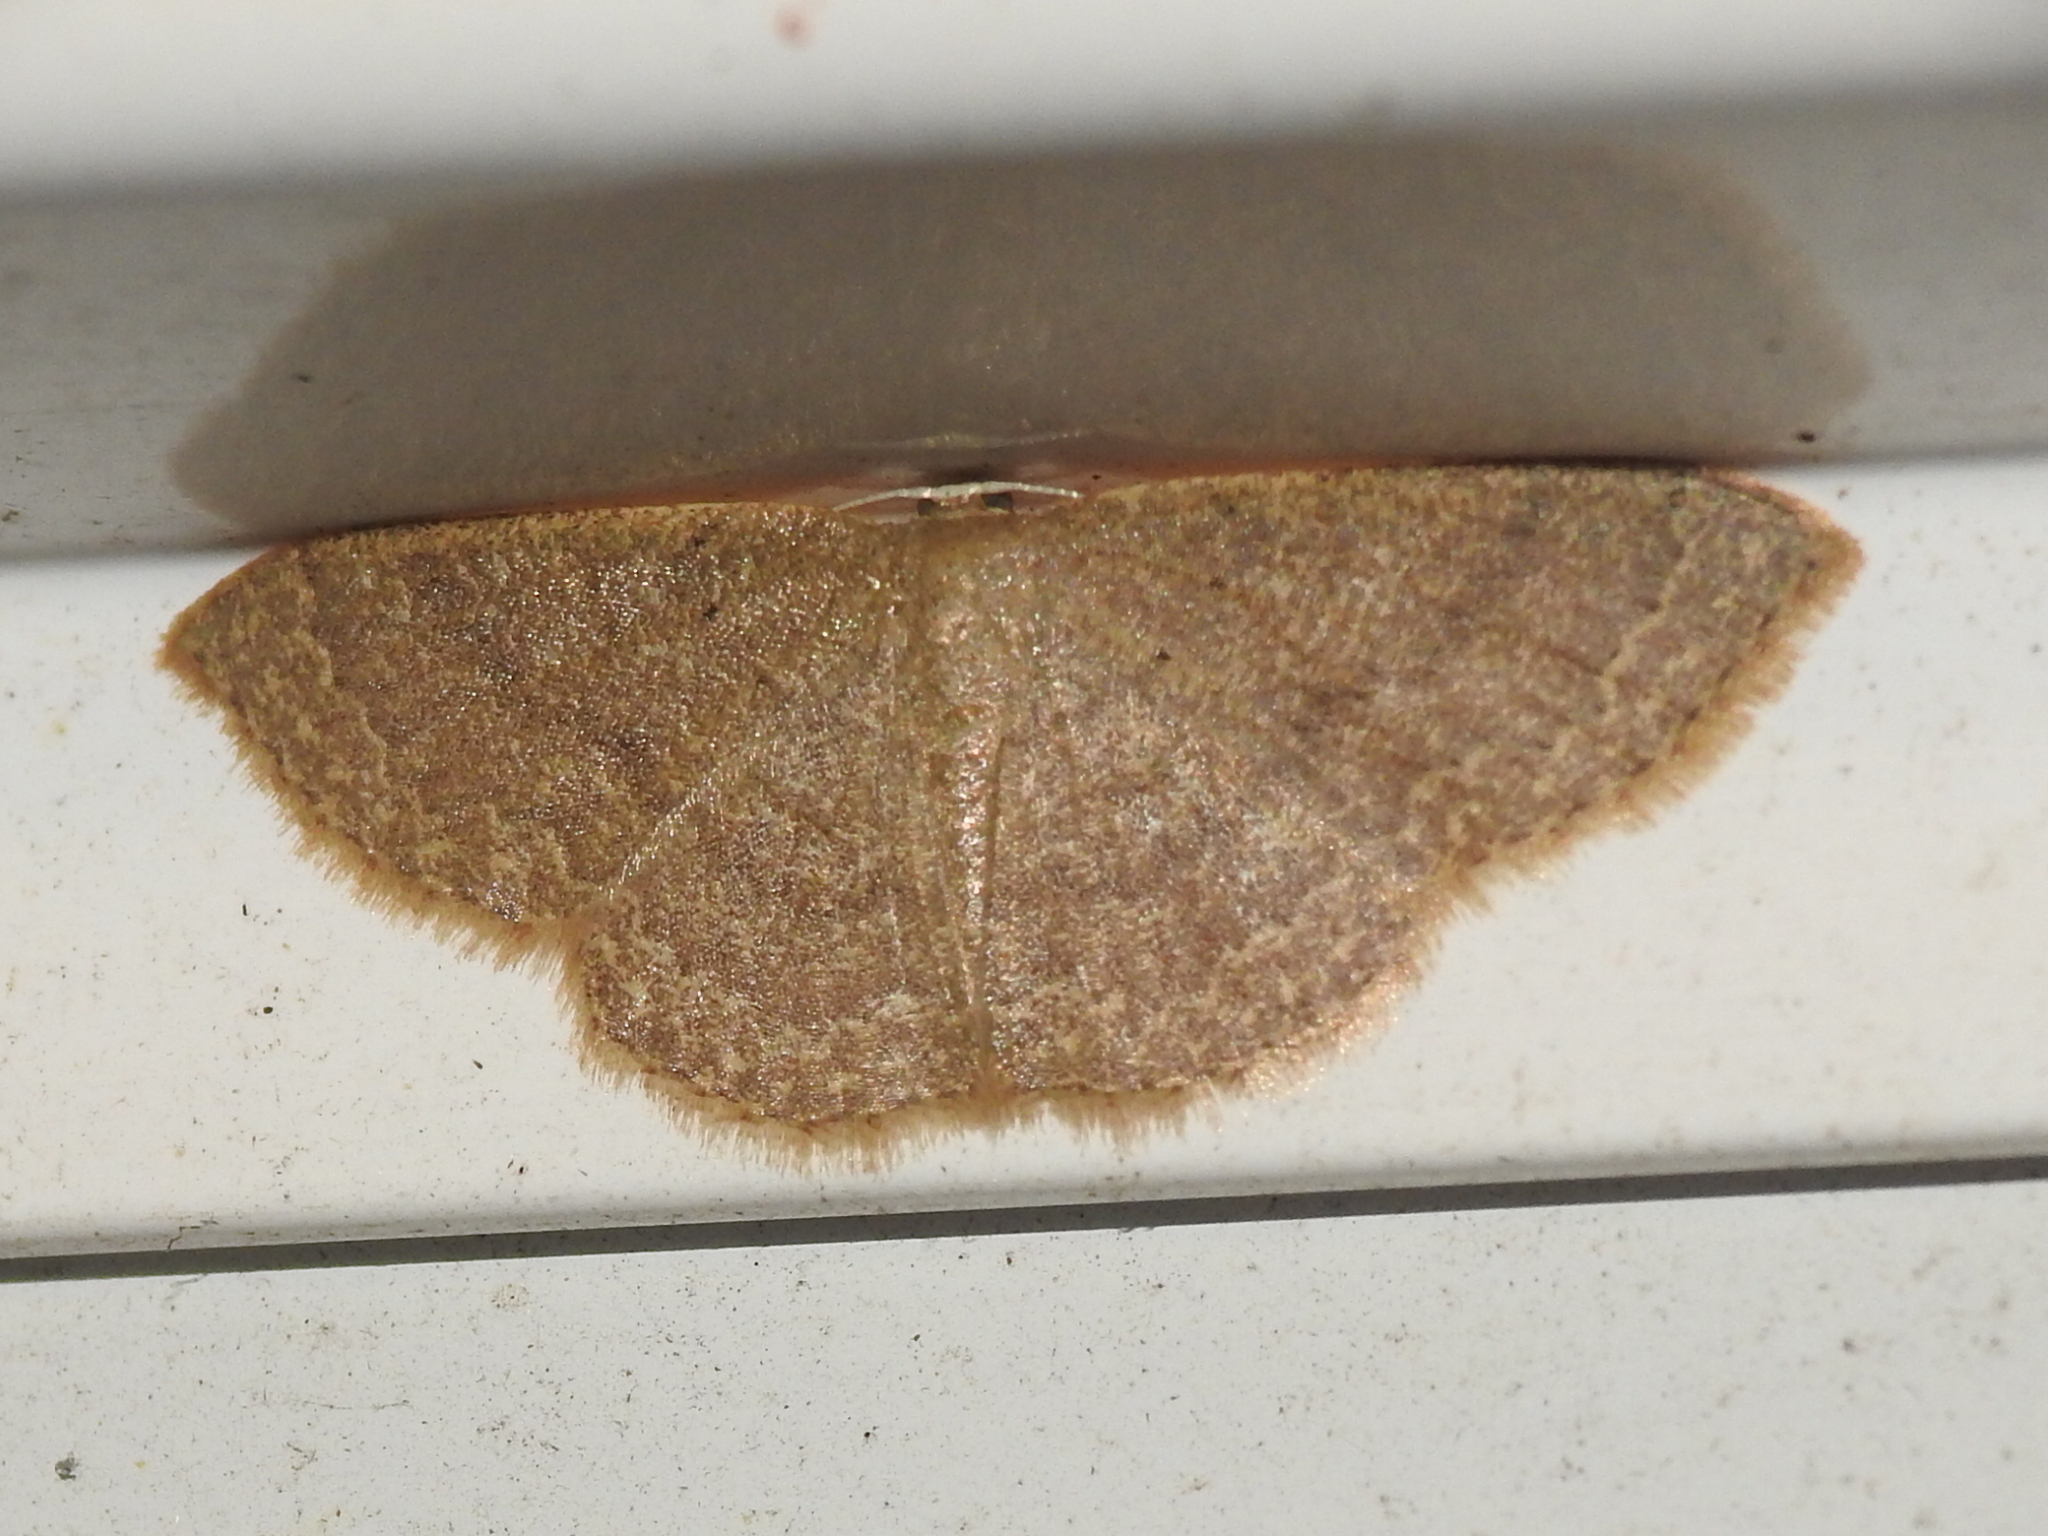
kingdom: Animalia
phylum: Arthropoda
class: Insecta
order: Lepidoptera
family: Geometridae
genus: Pleuroprucha
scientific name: Pleuroprucha insulsaria
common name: Common tan wave
